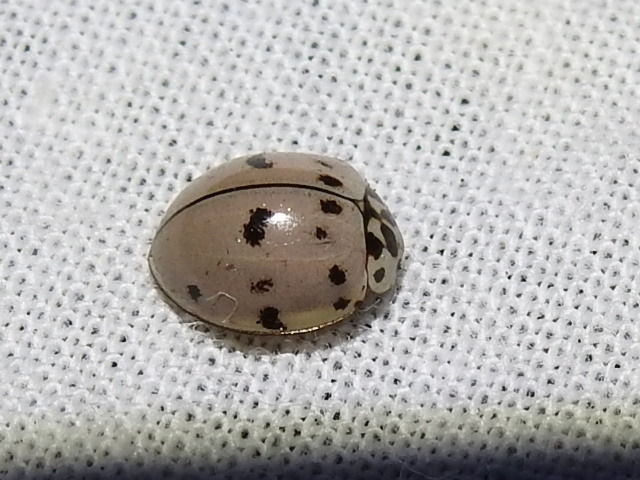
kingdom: Animalia
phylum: Arthropoda
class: Insecta
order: Coleoptera
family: Coccinellidae
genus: Olla
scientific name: Olla v-nigrum
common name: Ashy gray lady beetle
